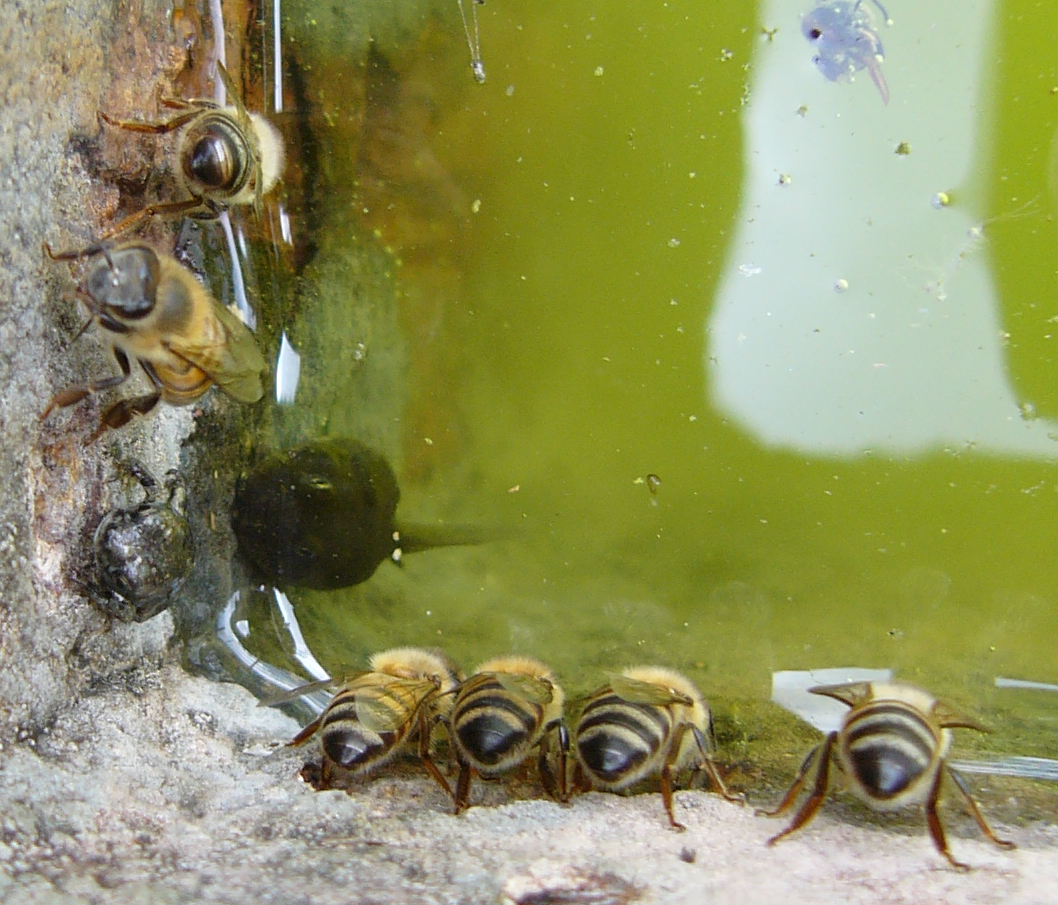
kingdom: Animalia
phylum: Arthropoda
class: Insecta
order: Hymenoptera
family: Apidae
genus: Apis
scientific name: Apis mellifera
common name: Honey bee
